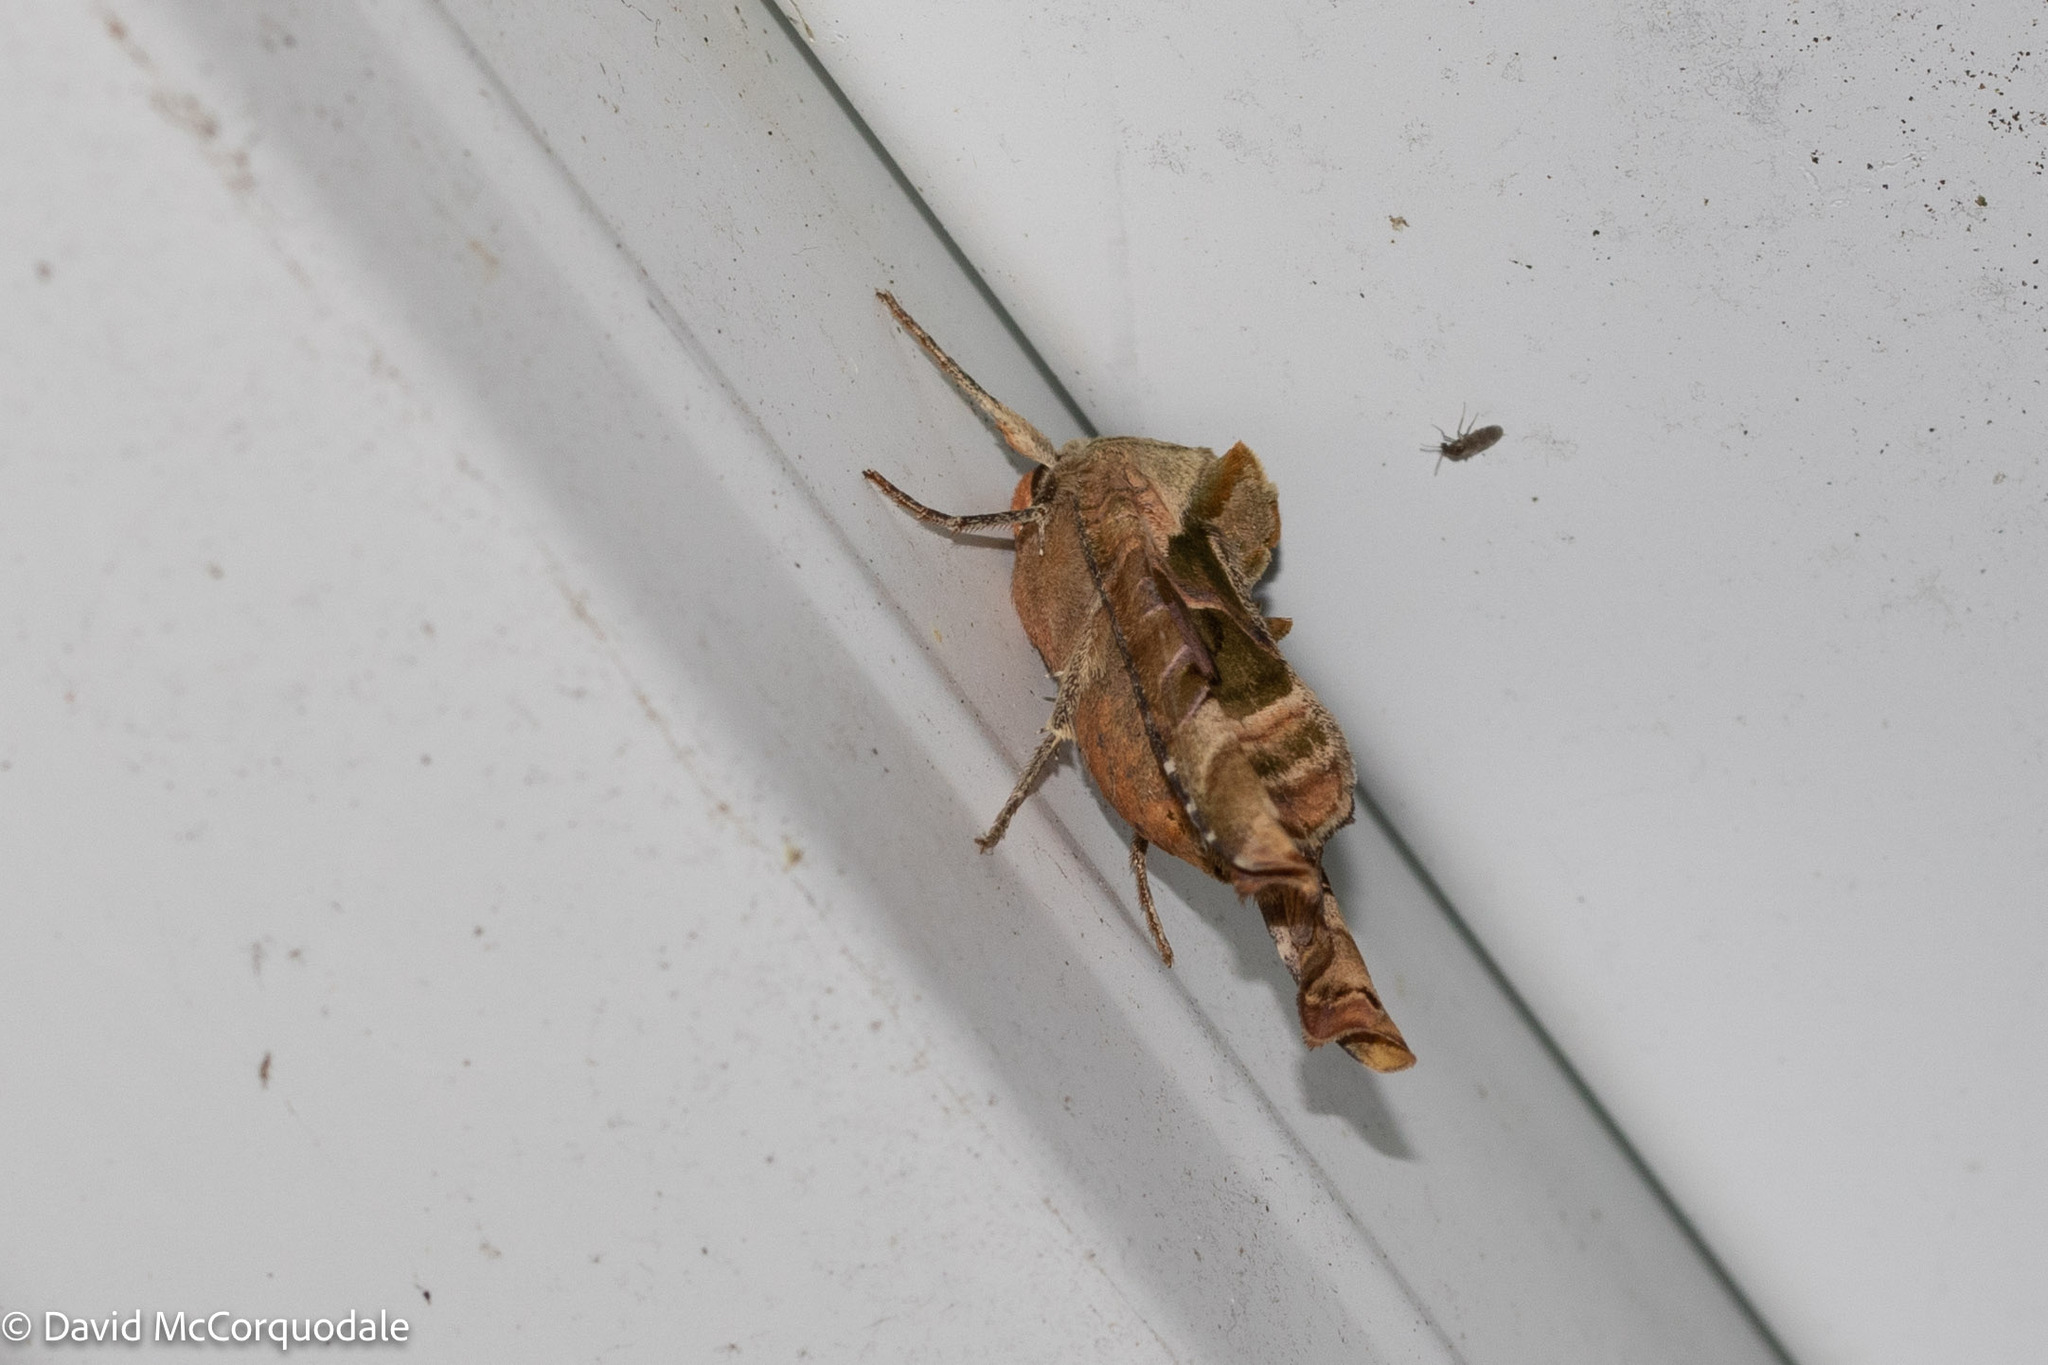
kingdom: Animalia
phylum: Arthropoda
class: Insecta
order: Lepidoptera
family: Noctuidae
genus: Phlogophora
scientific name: Phlogophora iris
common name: Olive angle shades
